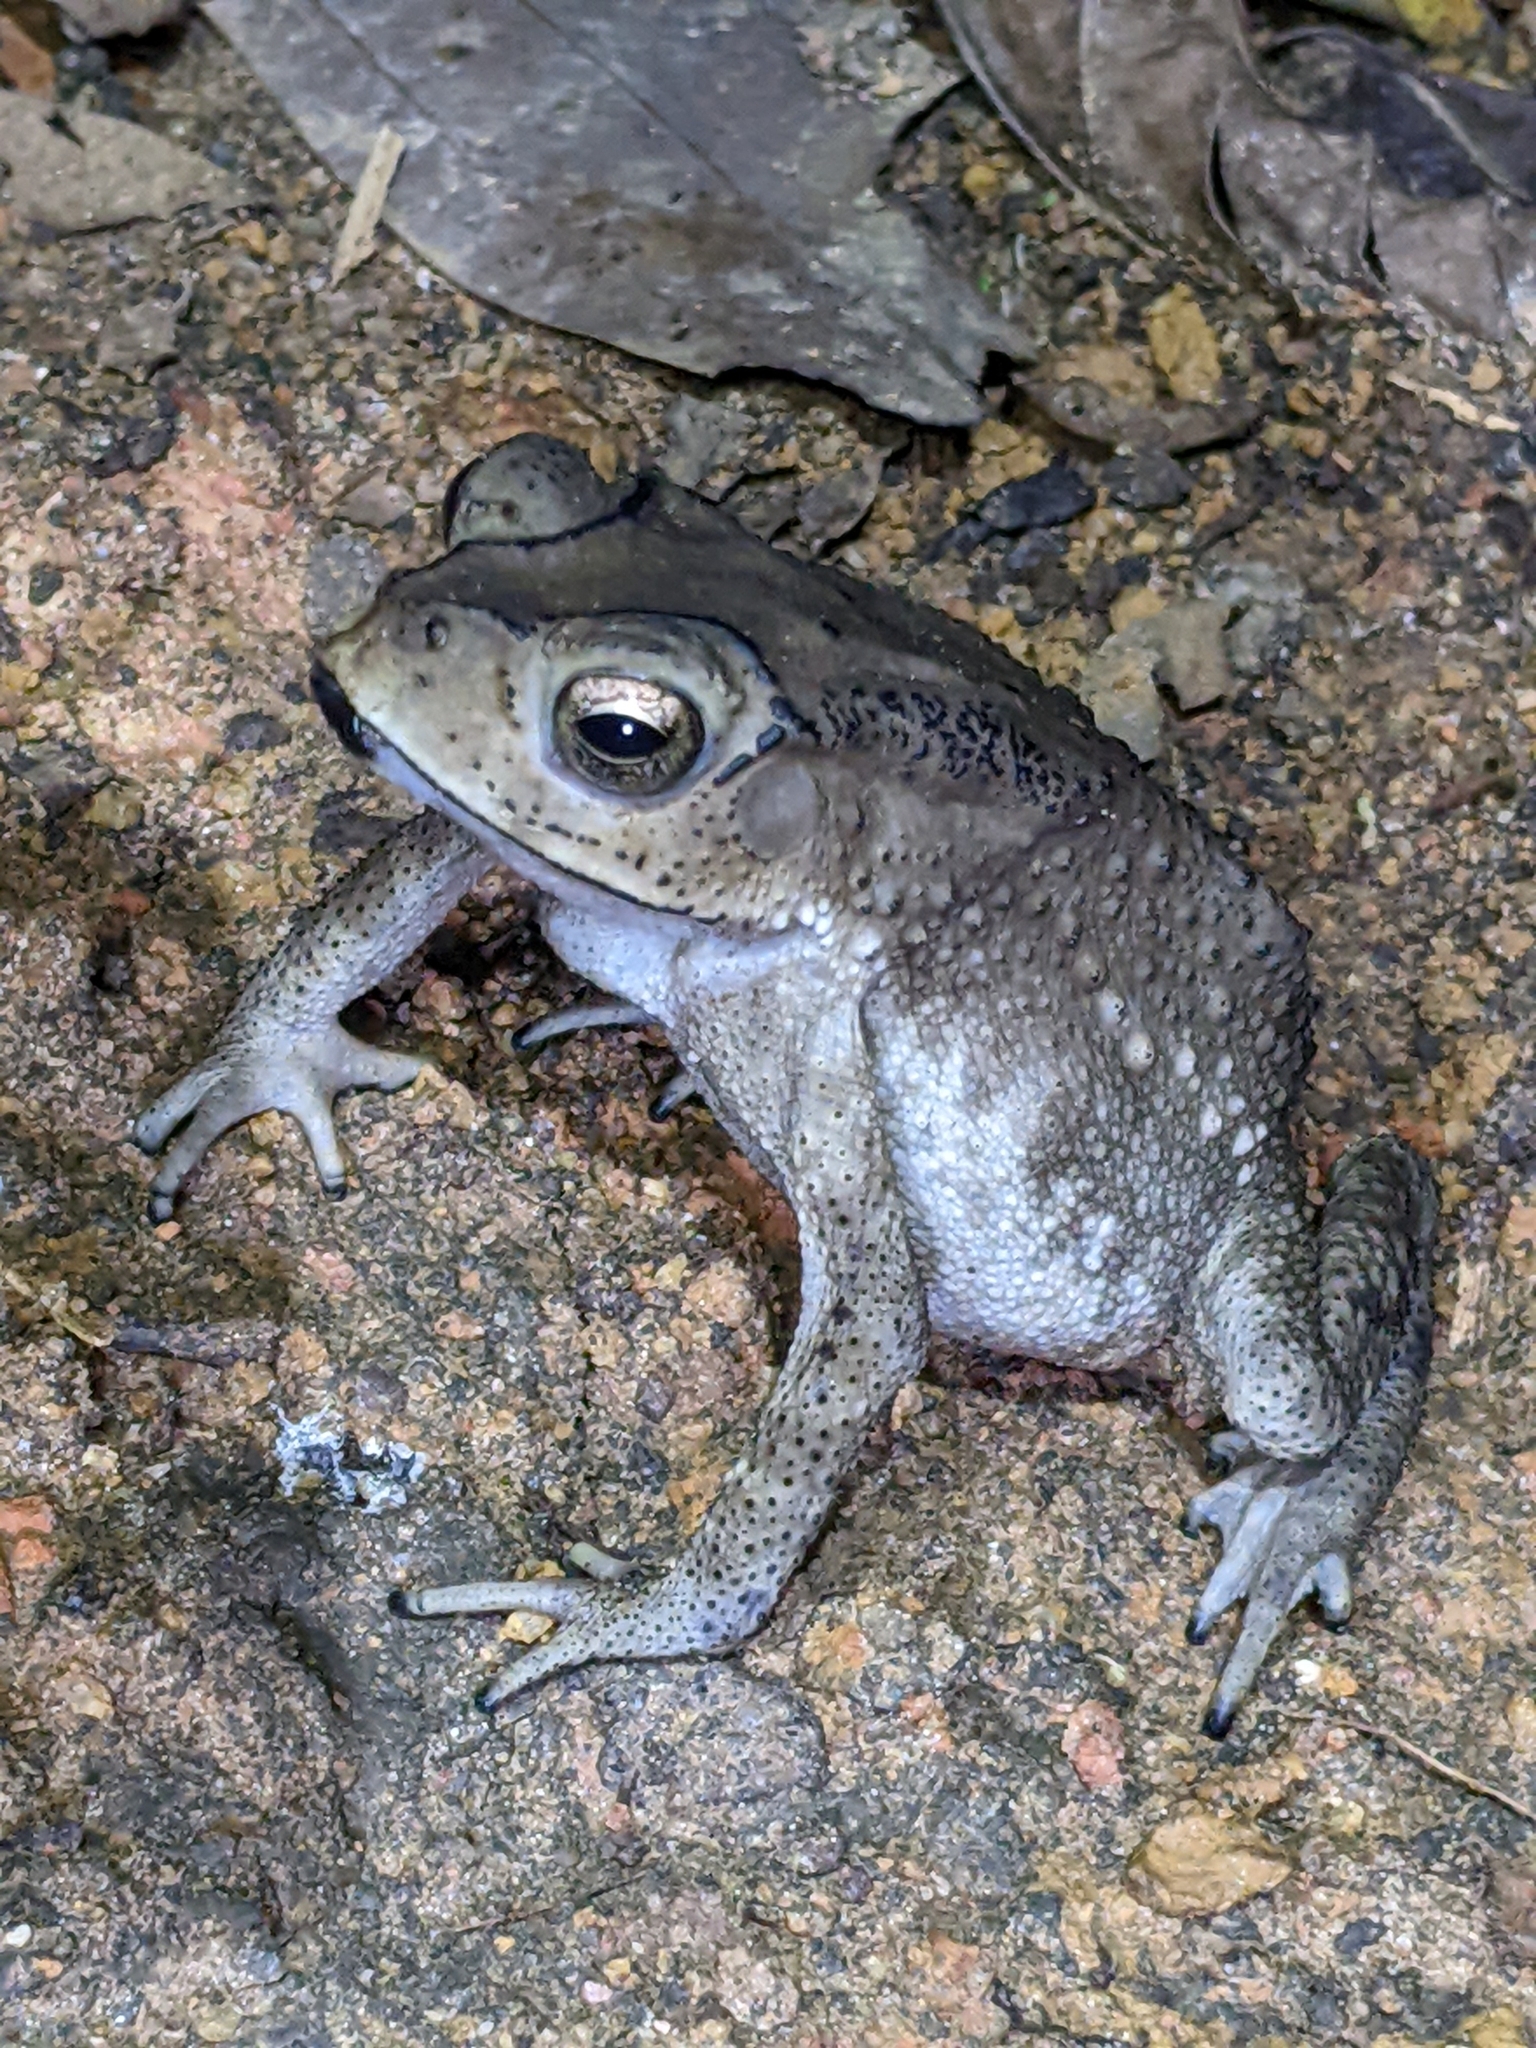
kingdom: Animalia
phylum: Chordata
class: Amphibia
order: Anura
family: Bufonidae
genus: Duttaphrynus
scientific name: Duttaphrynus melanostictus
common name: Common sunda toad
